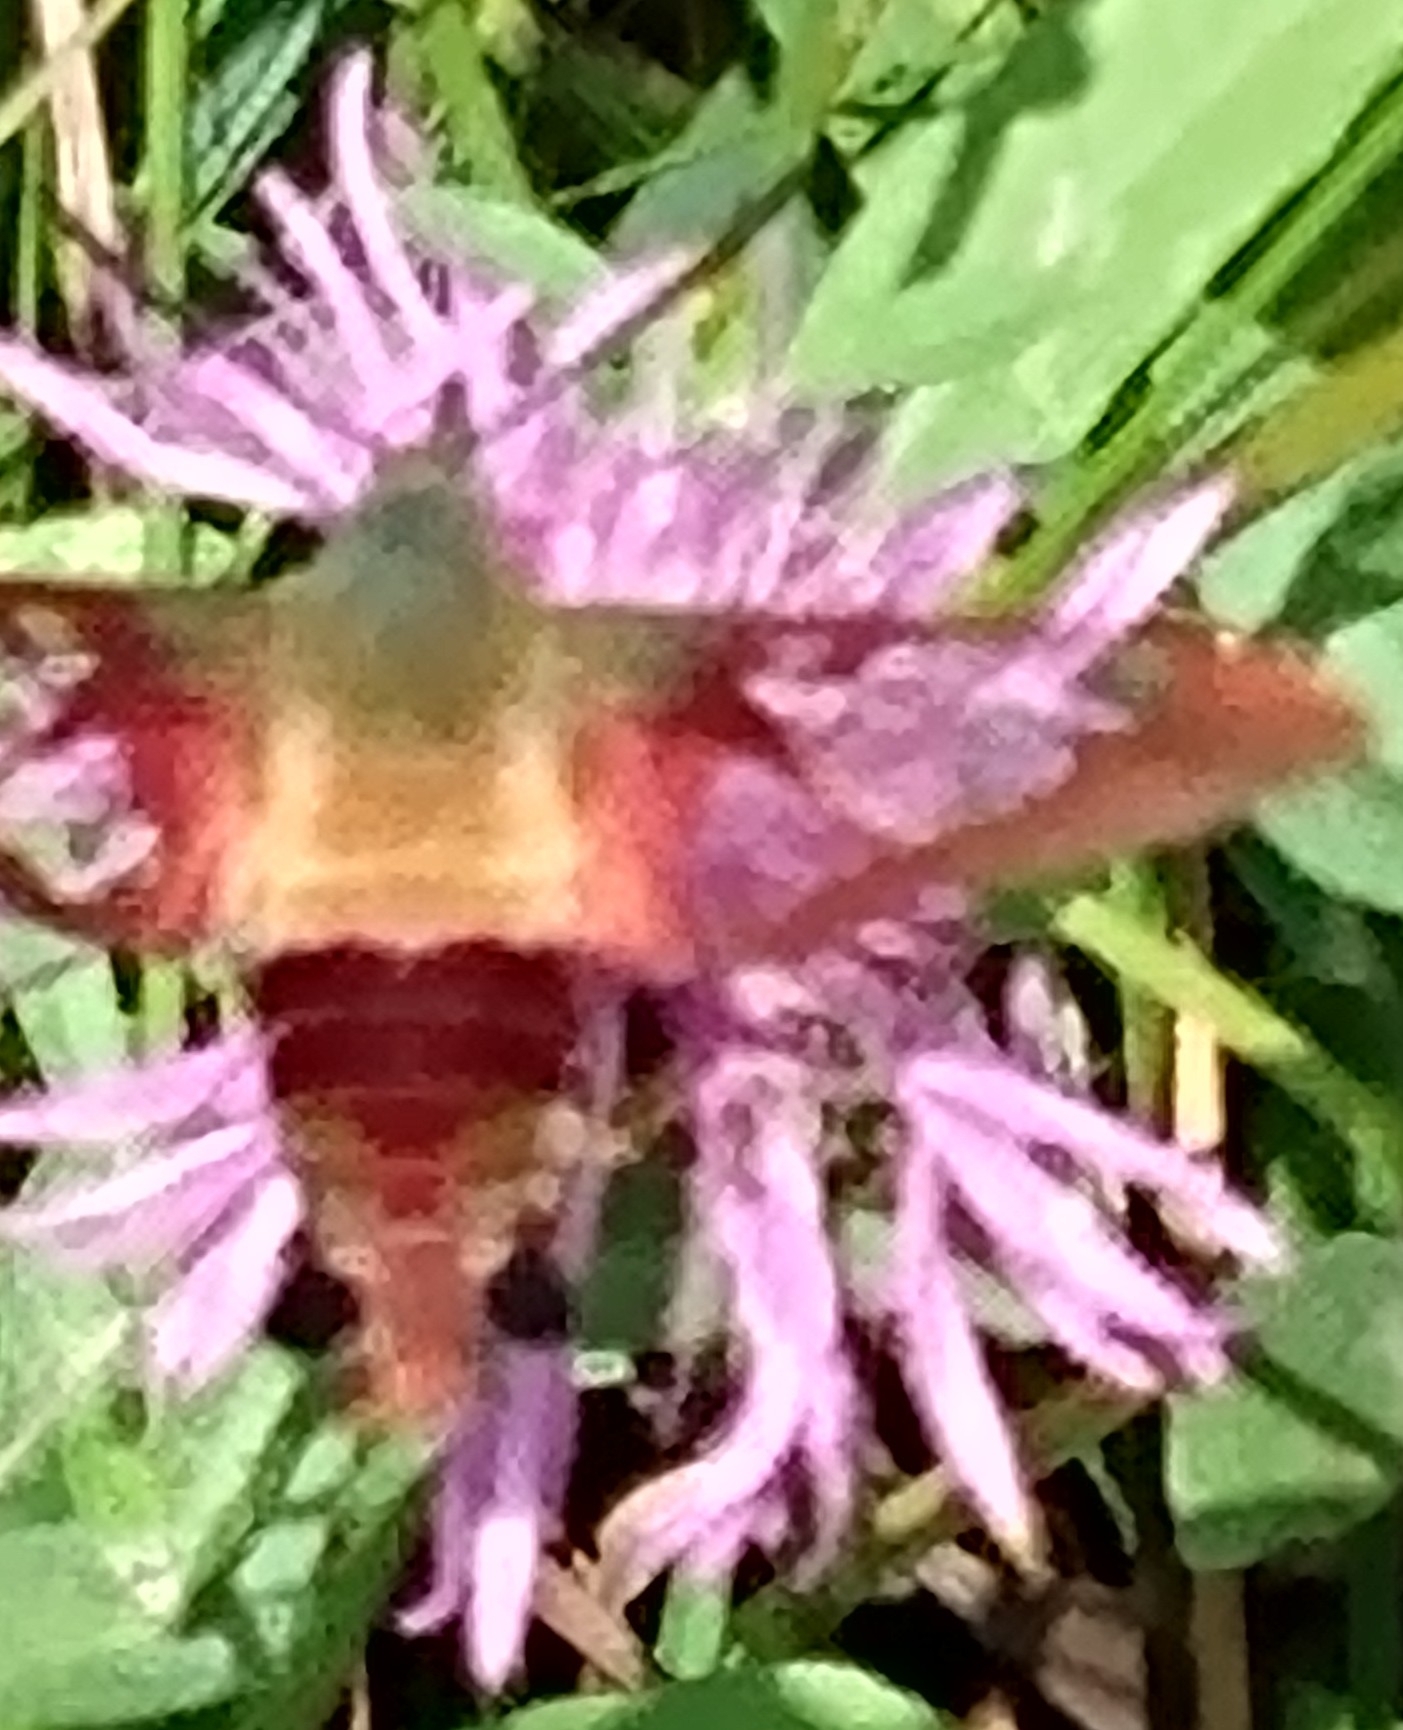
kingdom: Animalia
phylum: Arthropoda
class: Insecta
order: Lepidoptera
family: Sphingidae
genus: Hemaris
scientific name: Hemaris thysbe
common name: Common clear-wing
